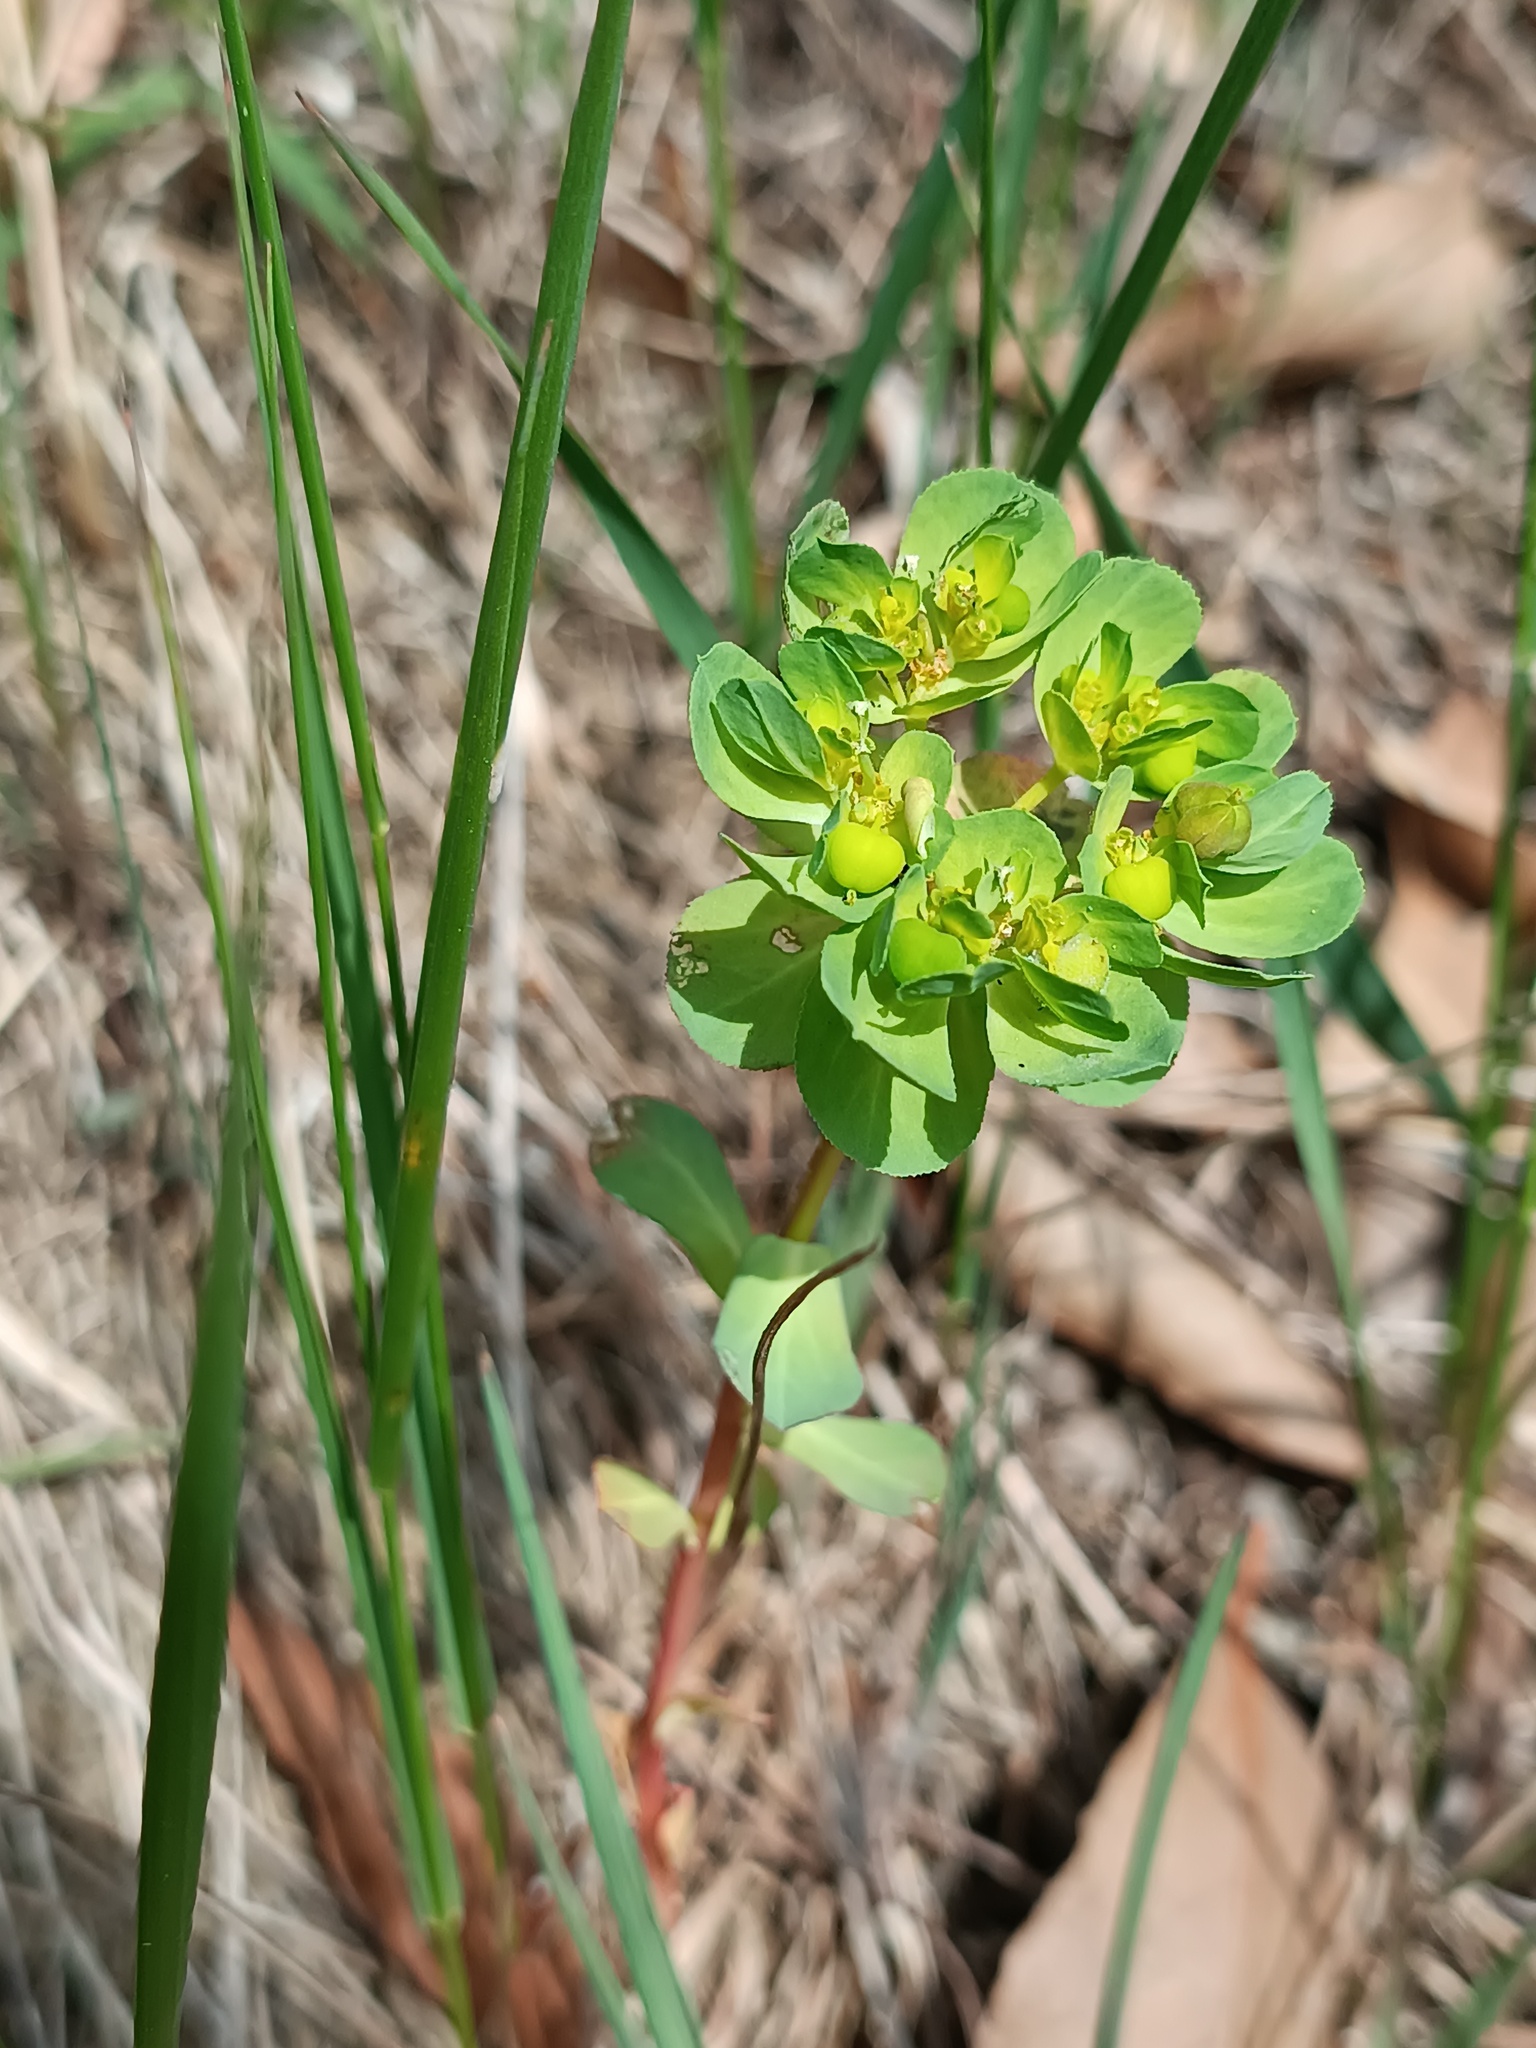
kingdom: Plantae
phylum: Tracheophyta
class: Magnoliopsida
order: Malpighiales
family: Euphorbiaceae
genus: Euphorbia
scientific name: Euphorbia helioscopia
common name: Sun spurge
